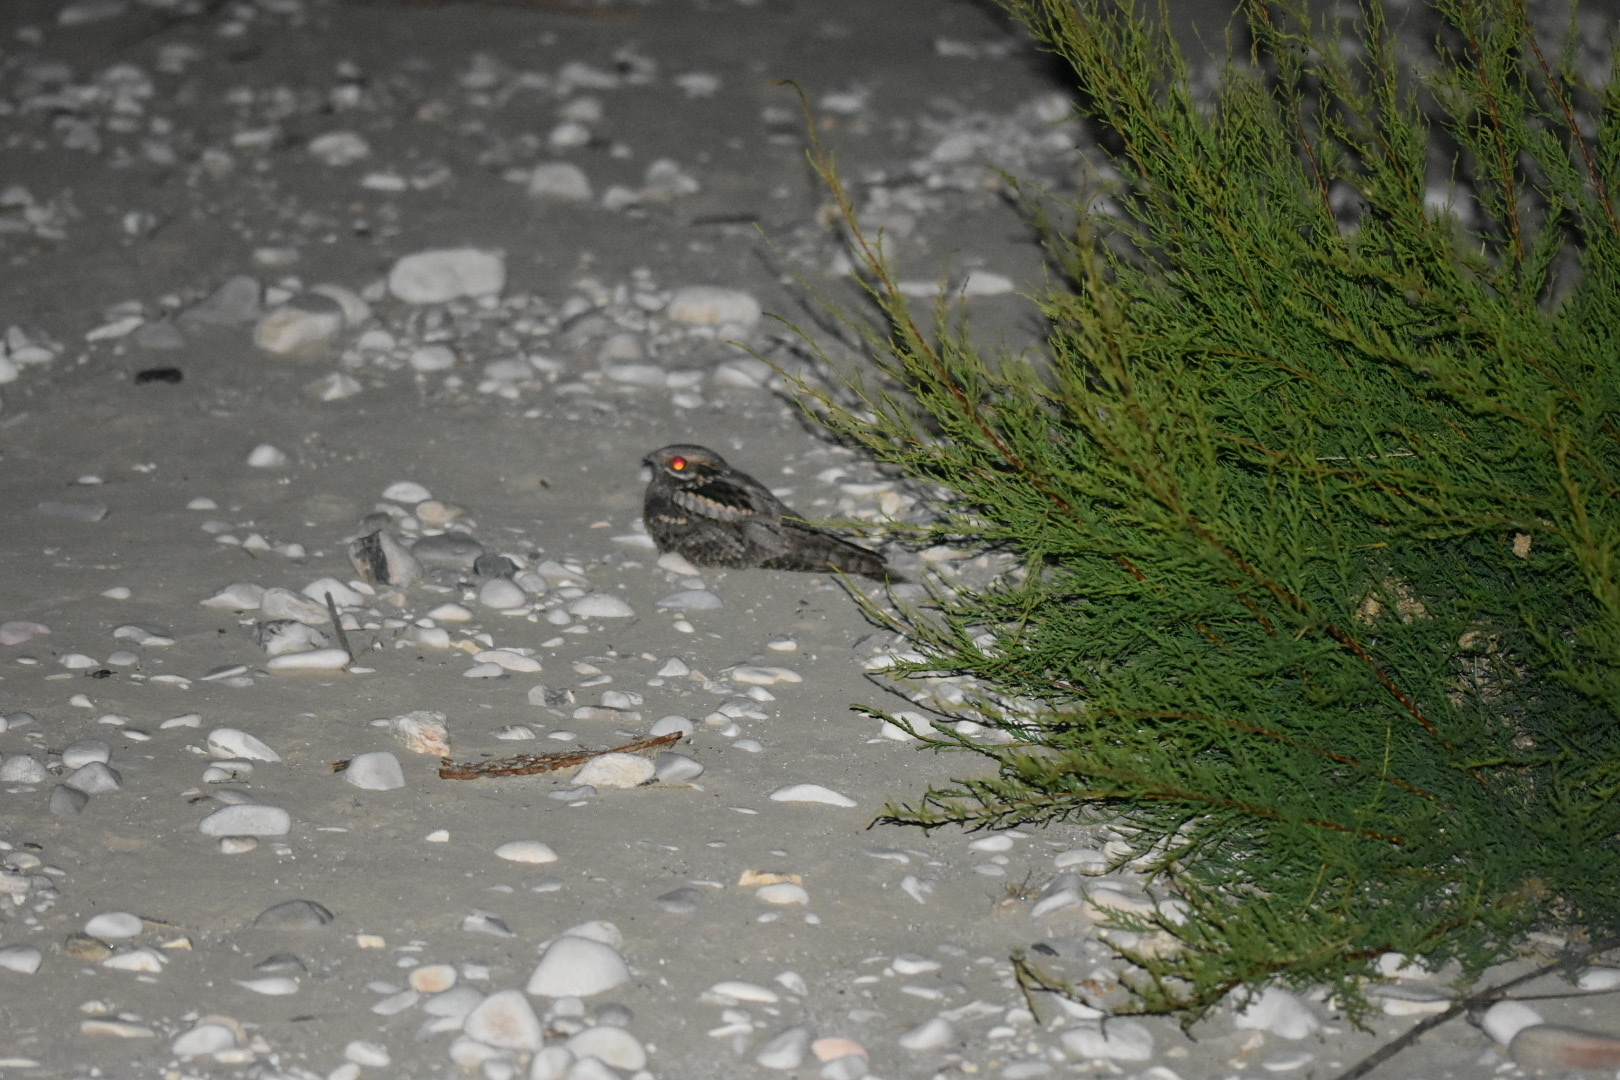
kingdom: Animalia
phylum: Chordata
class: Aves
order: Caprimulgiformes
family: Caprimulgidae
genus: Caprimulgus
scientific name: Caprimulgus europaeus
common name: European nightjar
